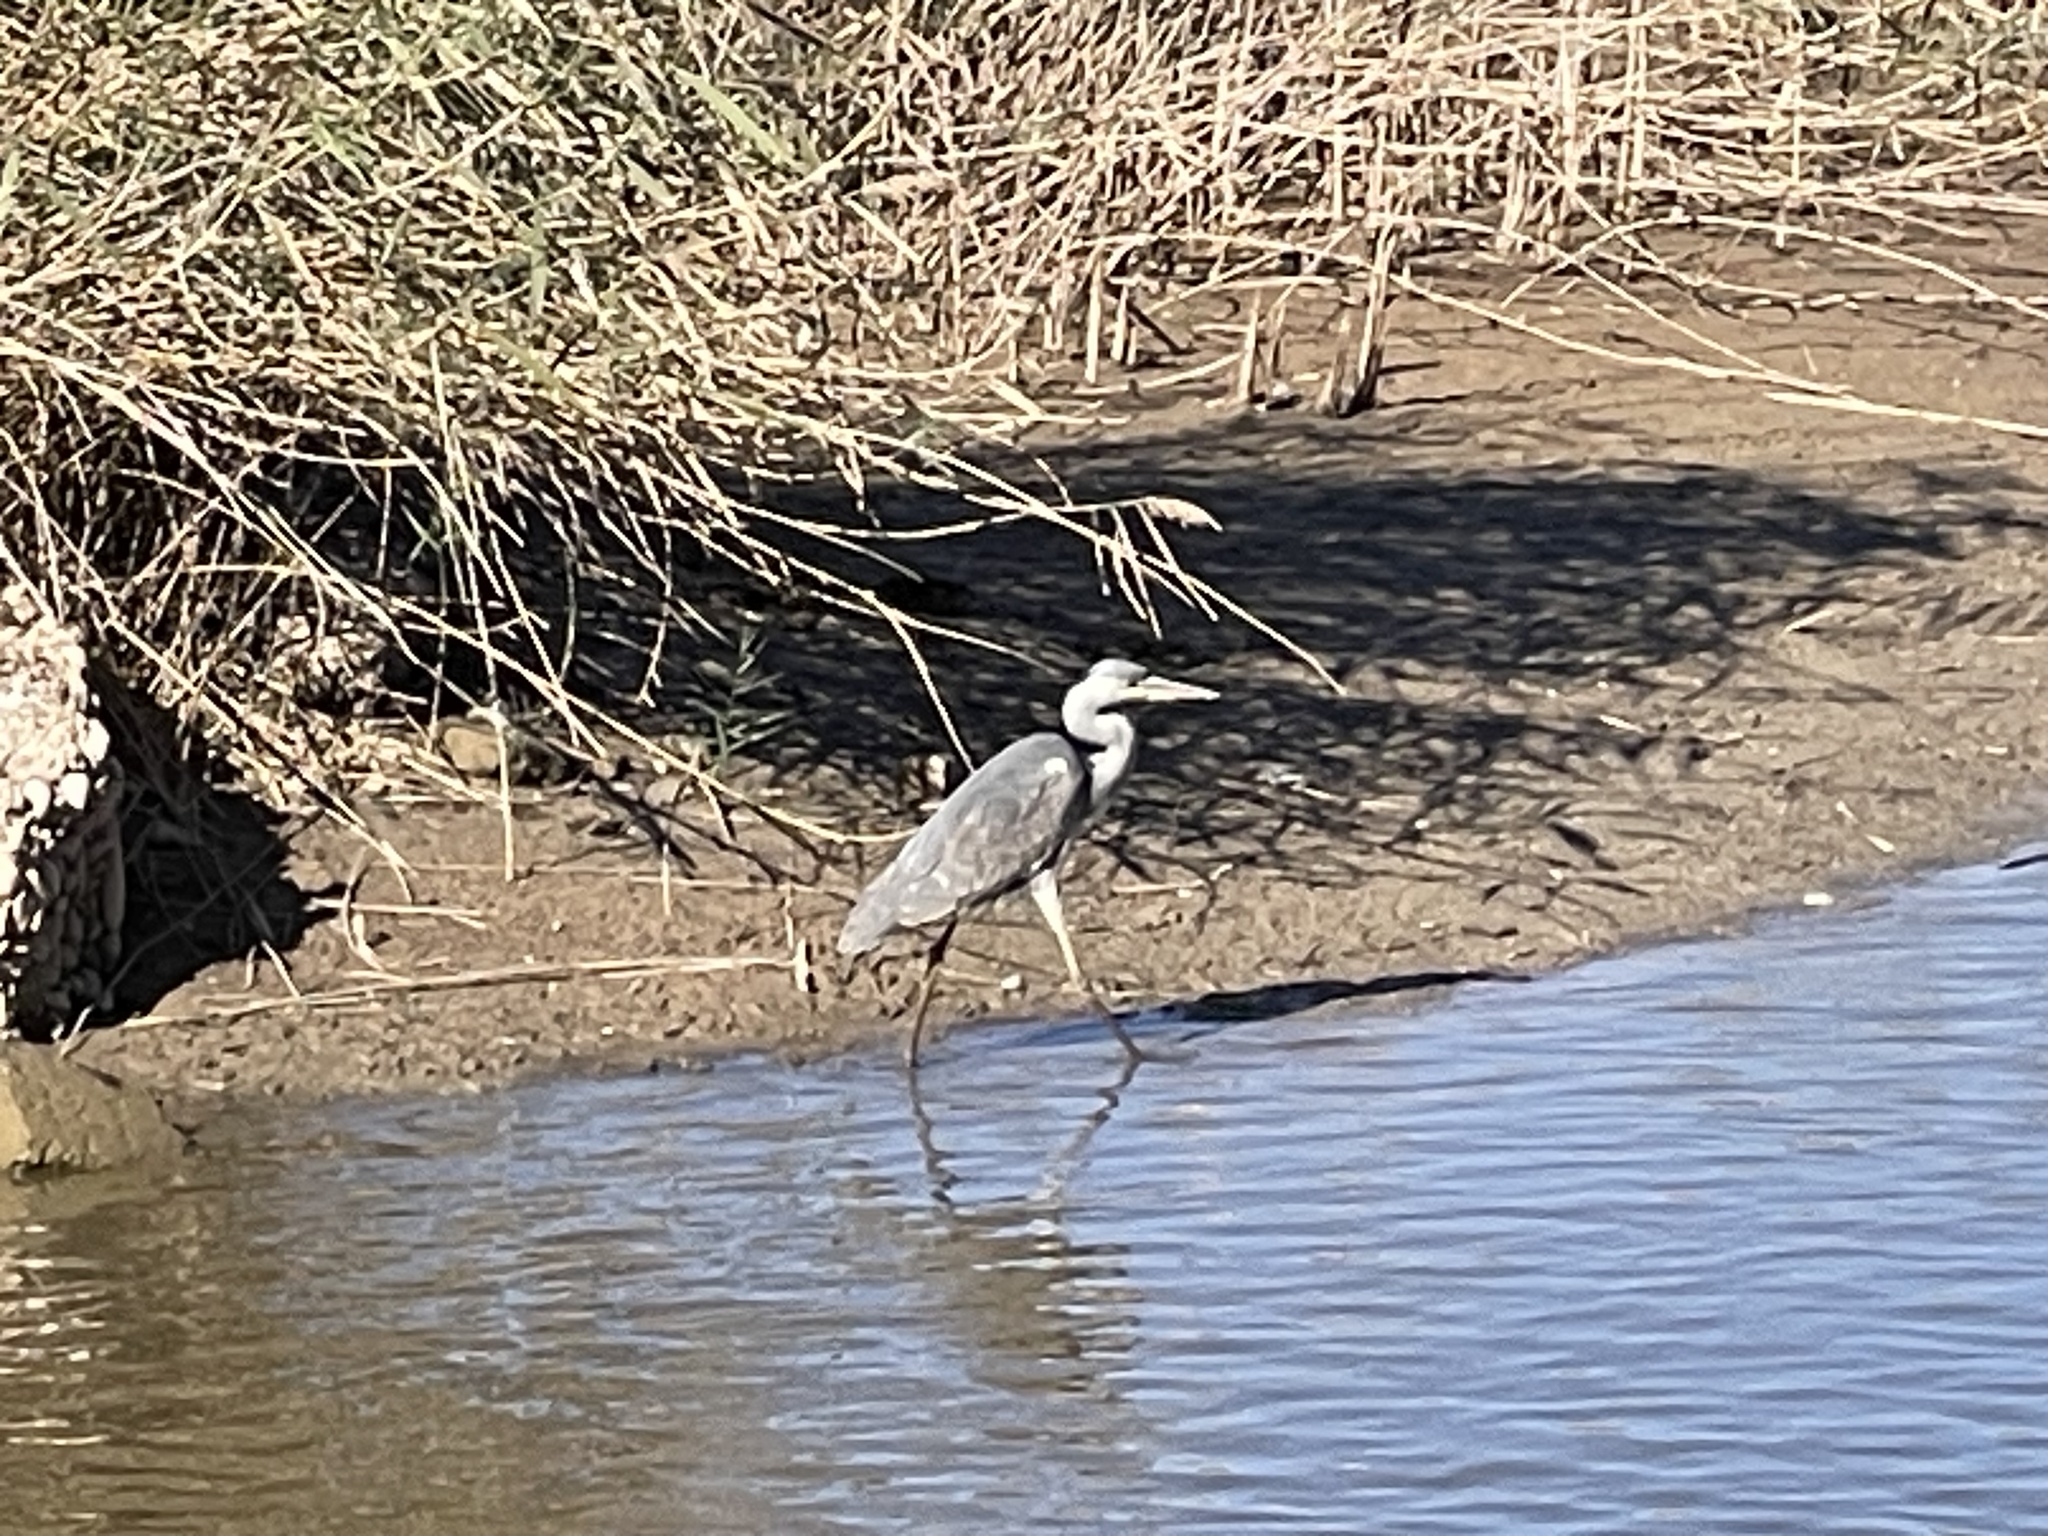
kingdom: Animalia
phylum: Chordata
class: Aves
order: Pelecaniformes
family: Ardeidae
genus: Ardea
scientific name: Ardea cinerea
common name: Grey heron
